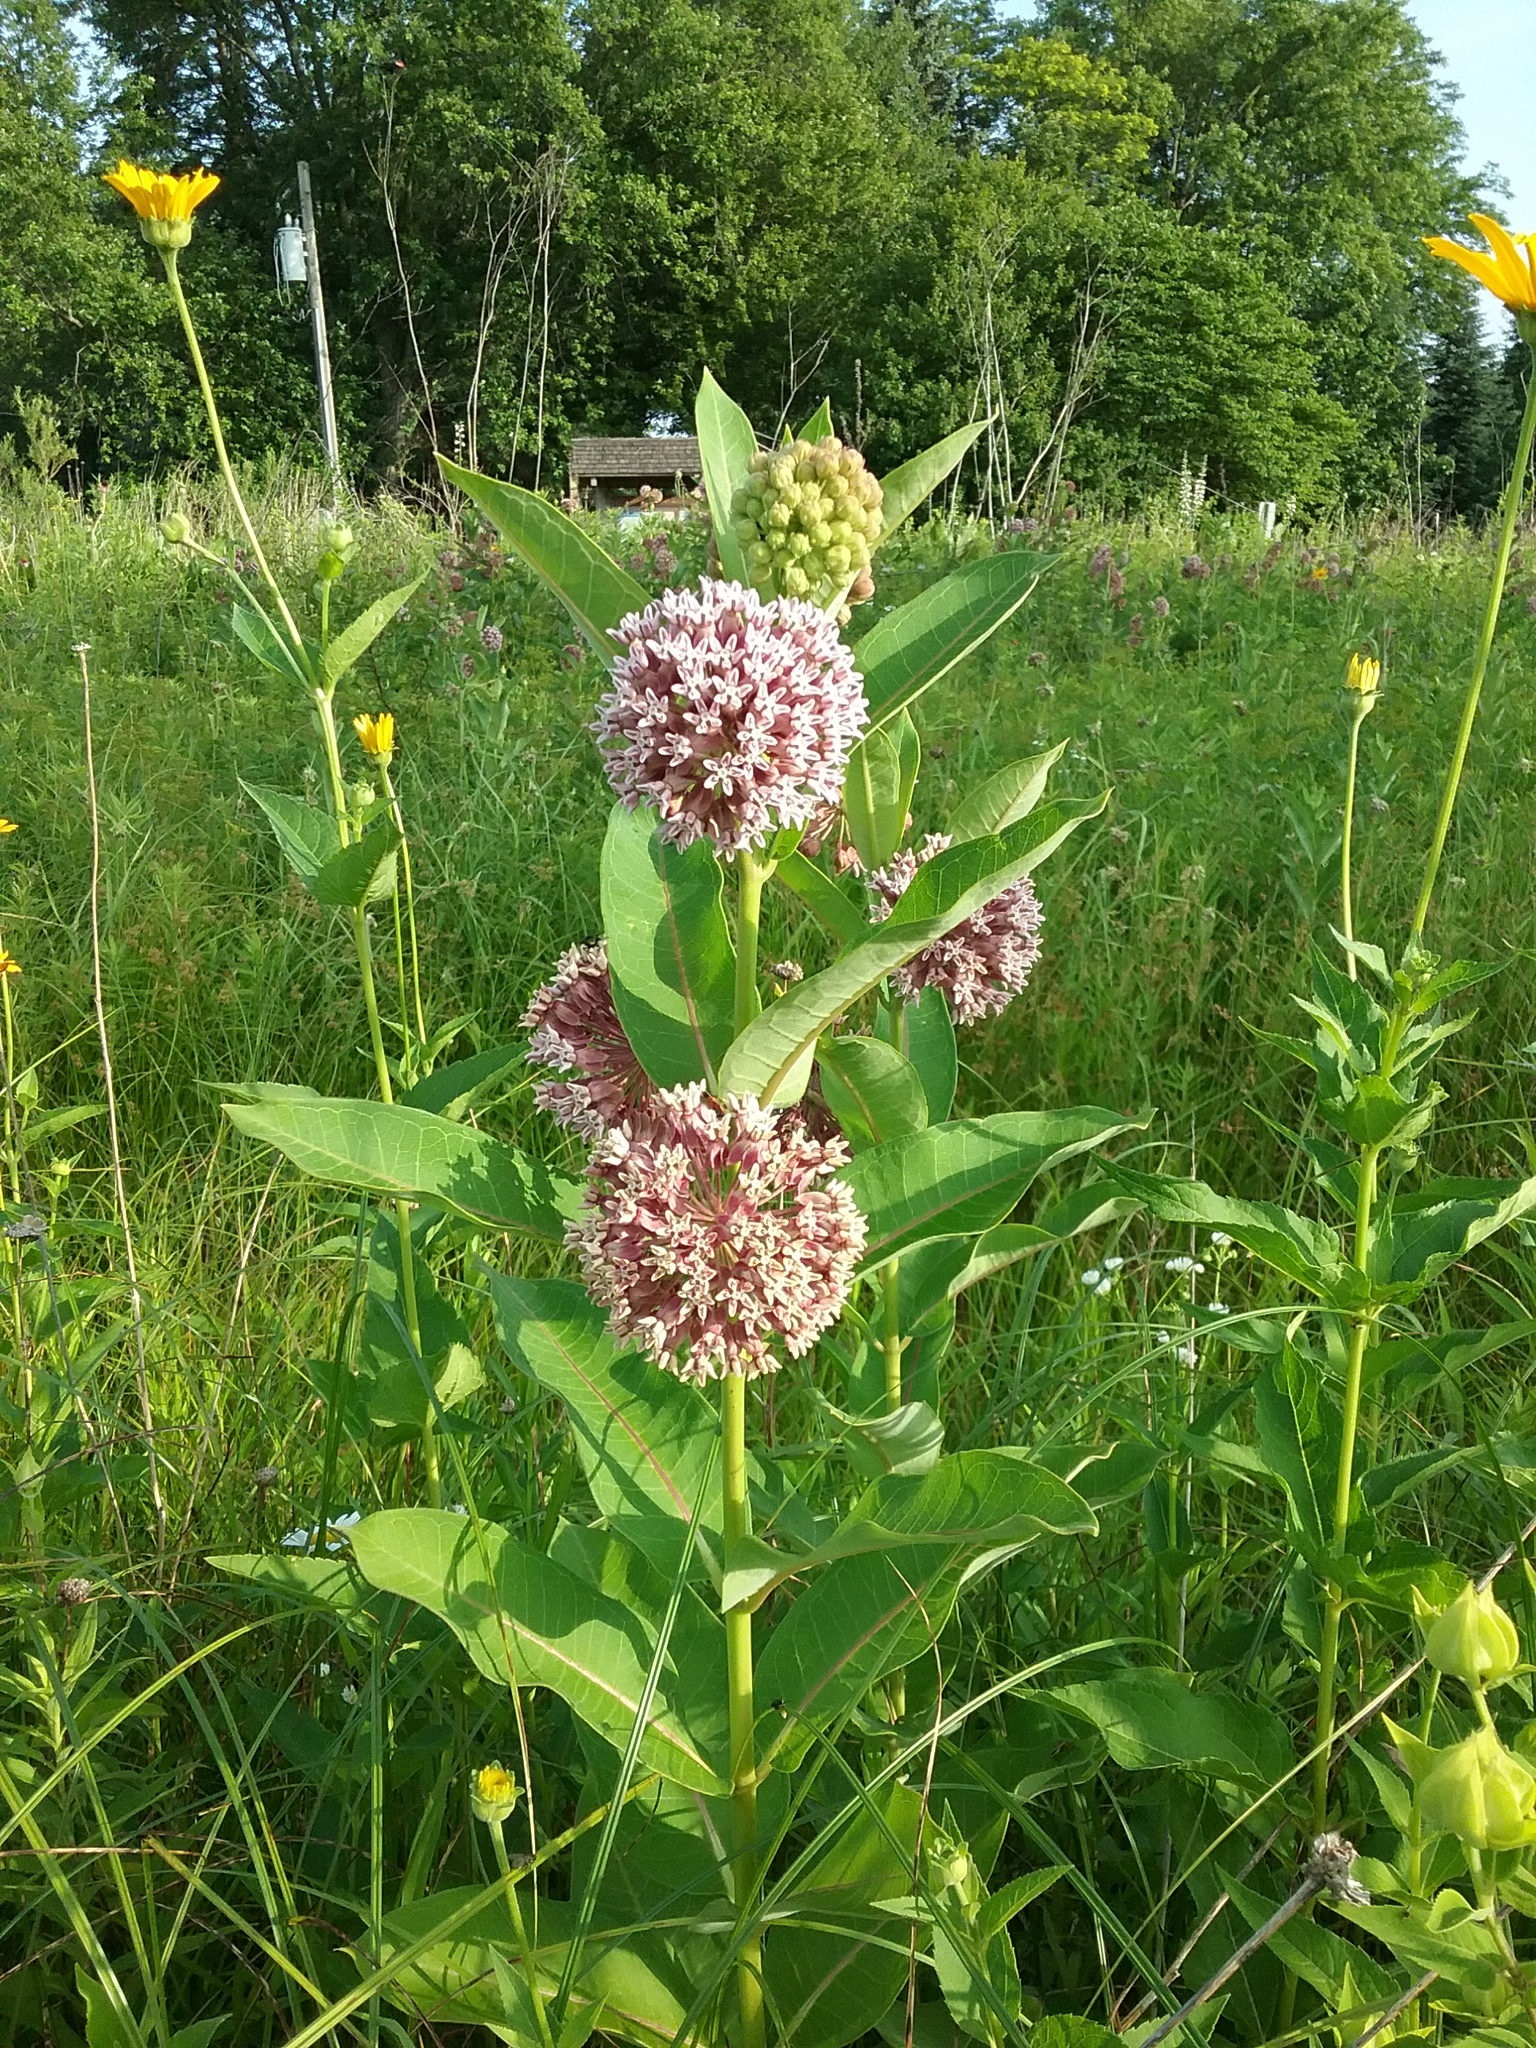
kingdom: Plantae
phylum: Tracheophyta
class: Magnoliopsida
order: Gentianales
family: Apocynaceae
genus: Asclepias
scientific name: Asclepias syriaca
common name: Common milkweed
